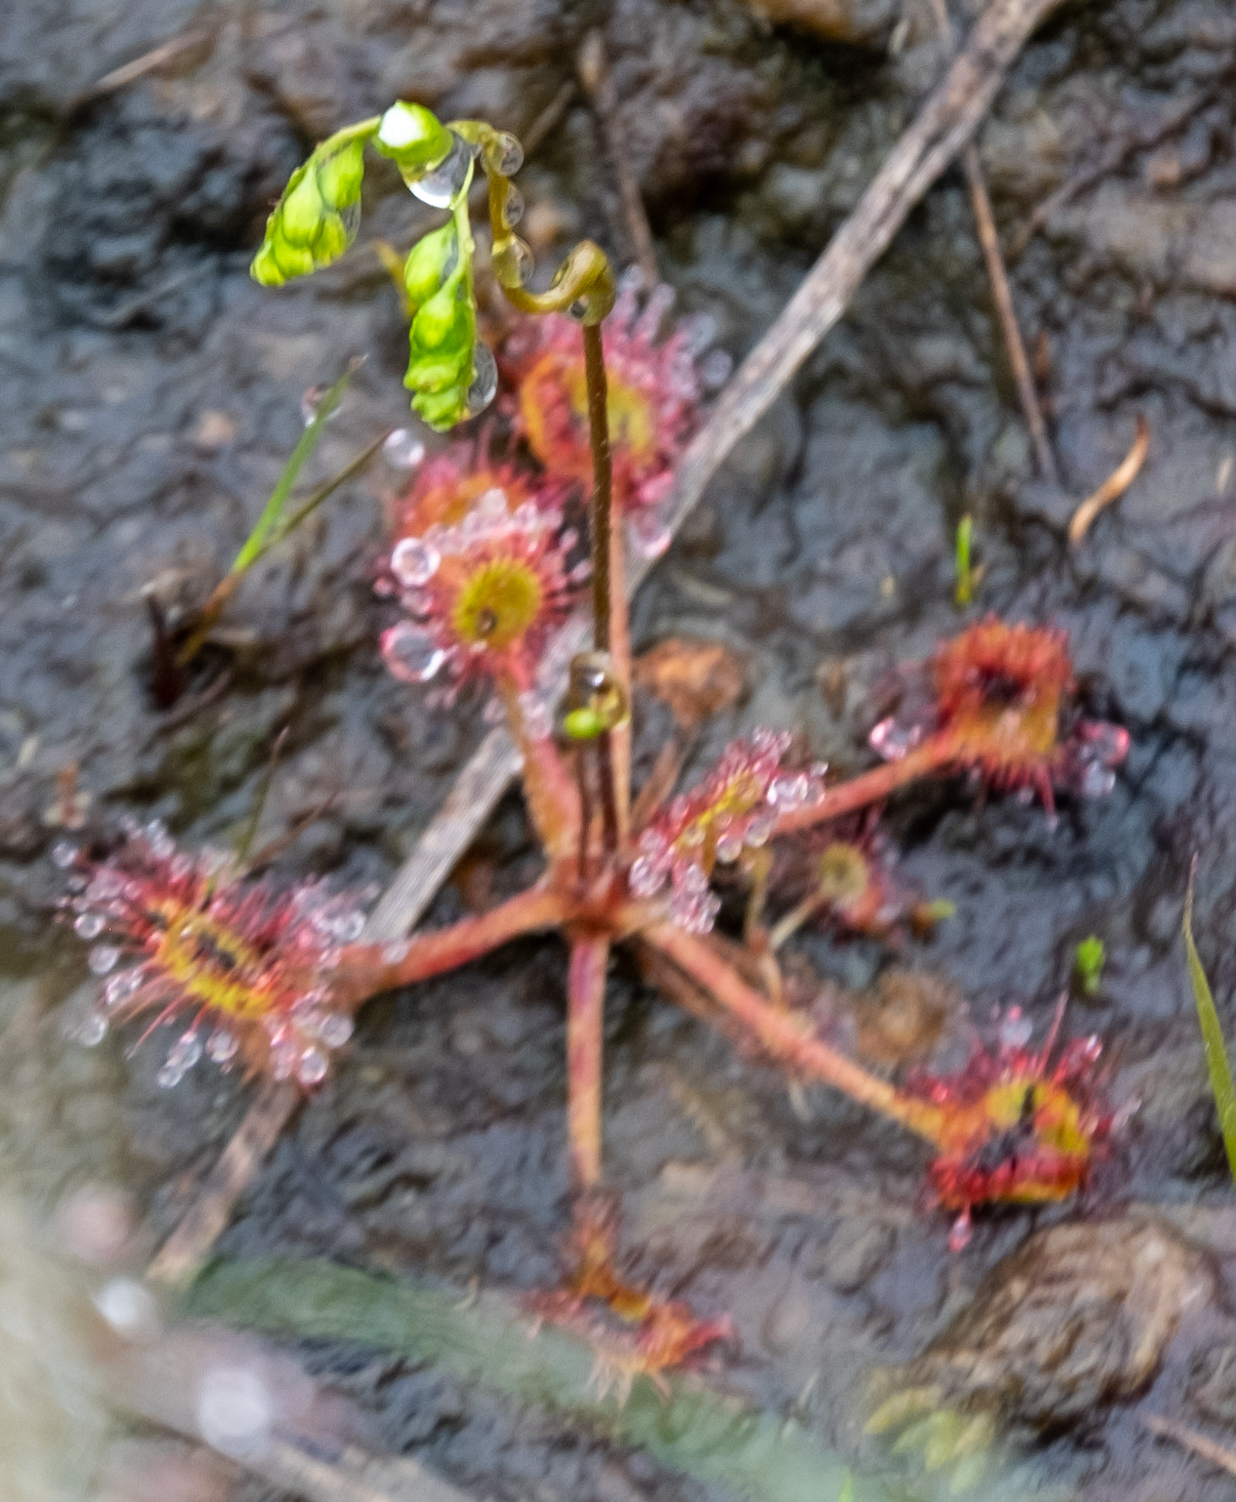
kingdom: Plantae
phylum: Tracheophyta
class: Magnoliopsida
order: Caryophyllales
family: Droseraceae
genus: Drosera
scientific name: Drosera rotundifolia
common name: Round-leaved sundew
